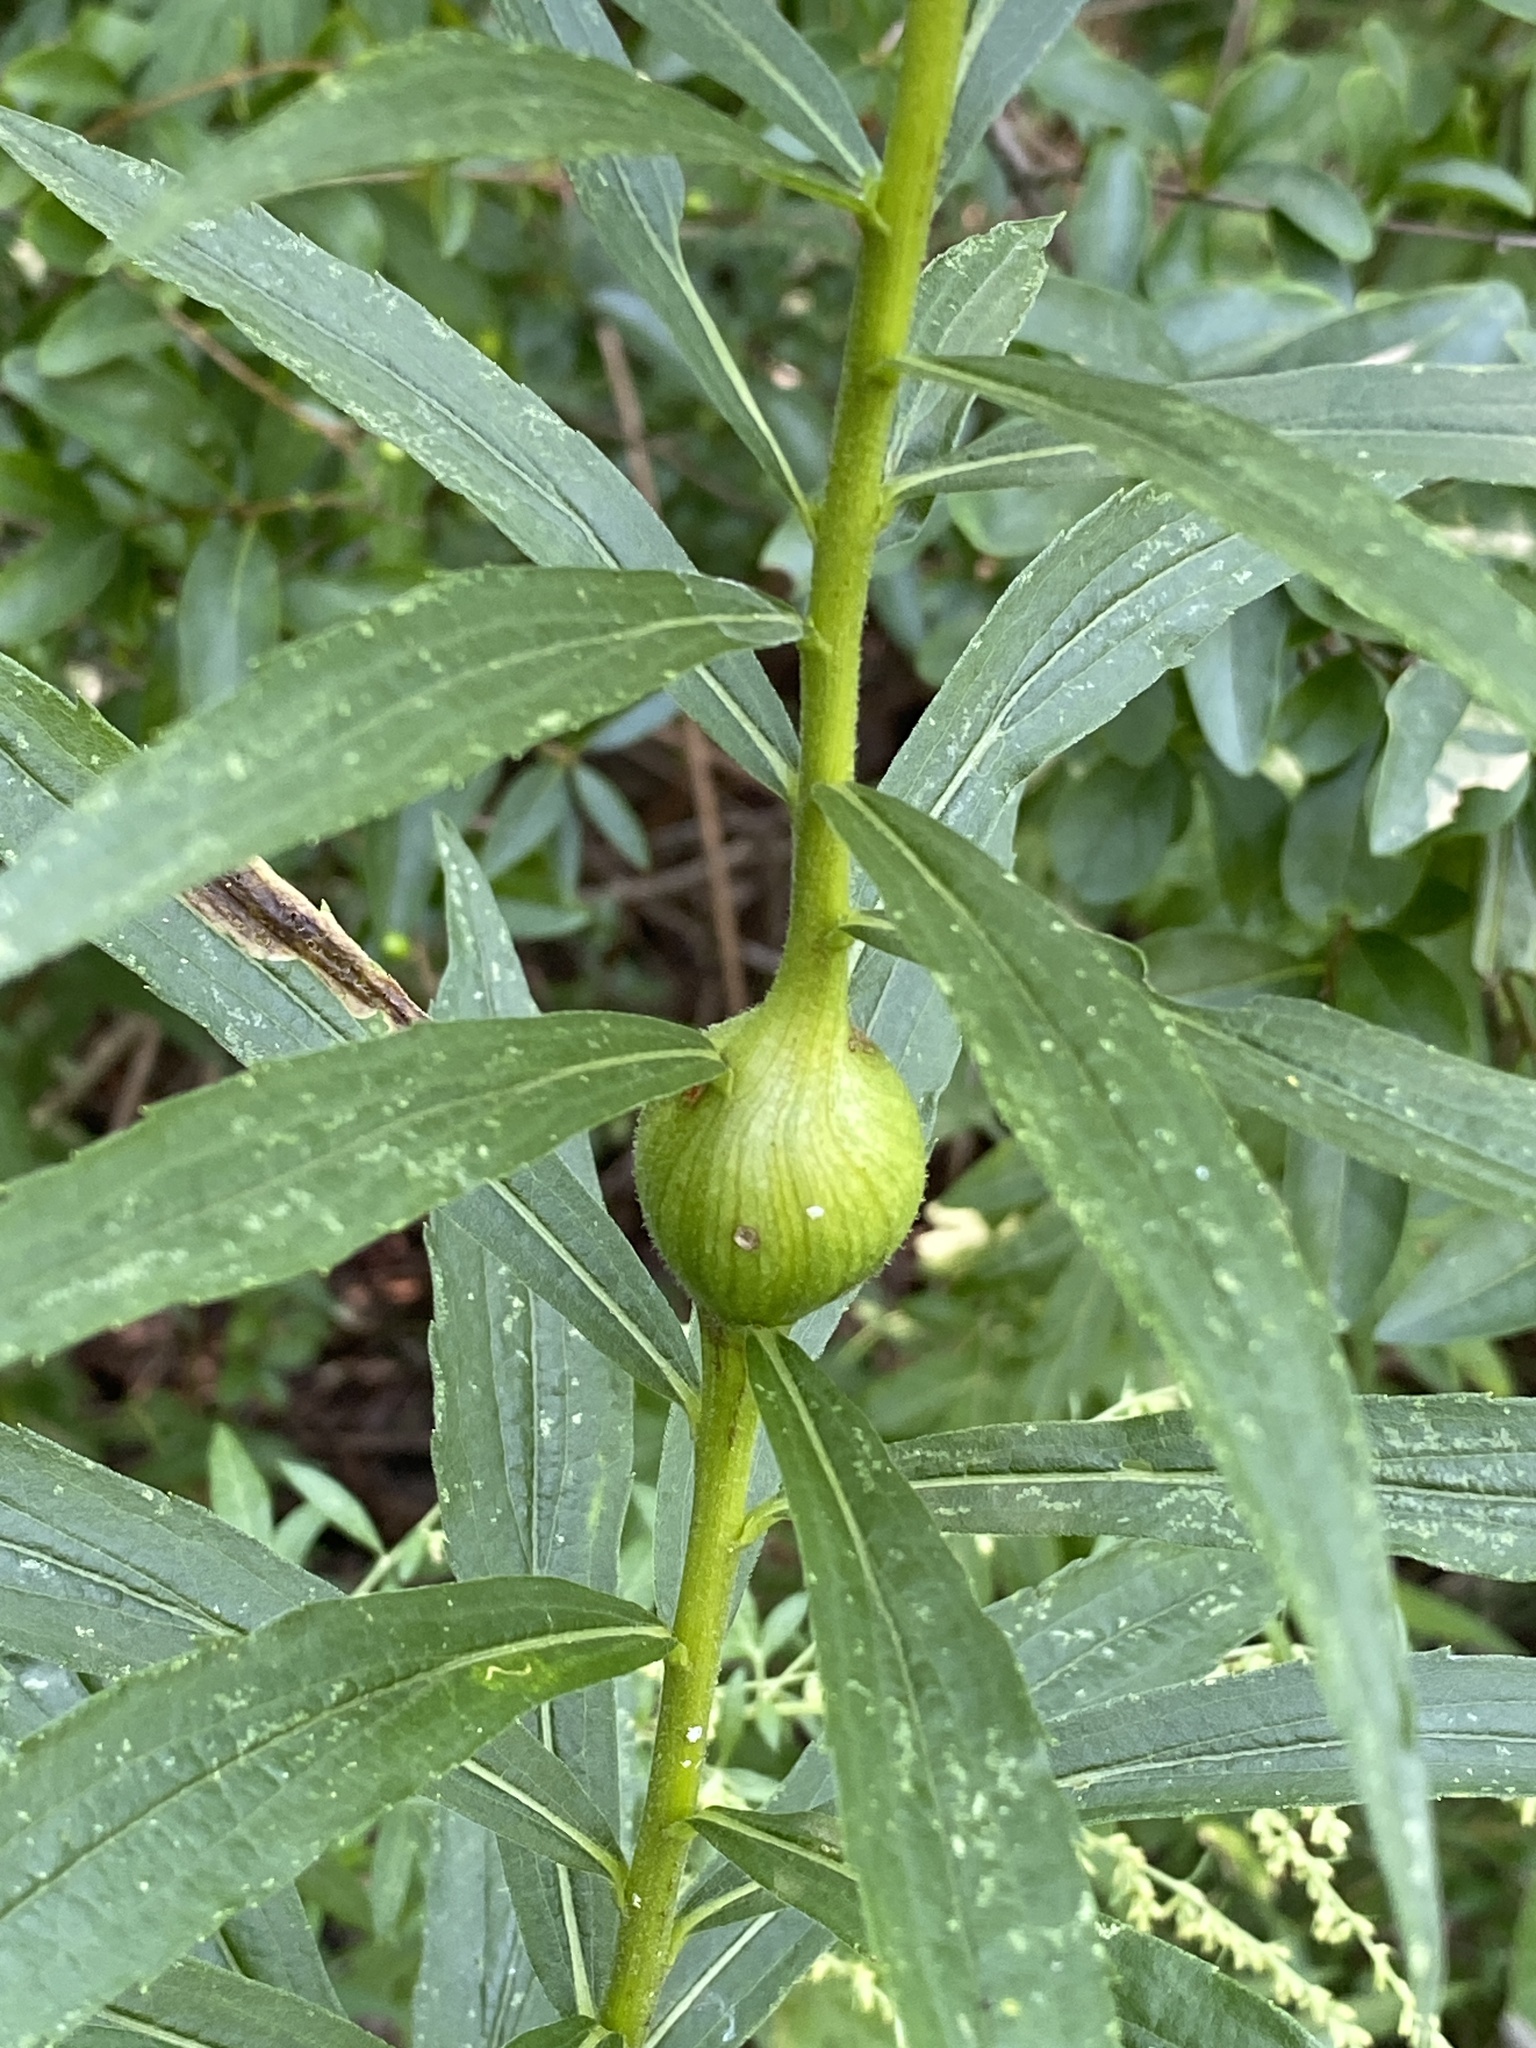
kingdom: Animalia
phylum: Arthropoda
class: Insecta
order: Diptera
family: Tephritidae
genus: Eurosta
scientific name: Eurosta solidaginis
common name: Goldenrod gall fly
